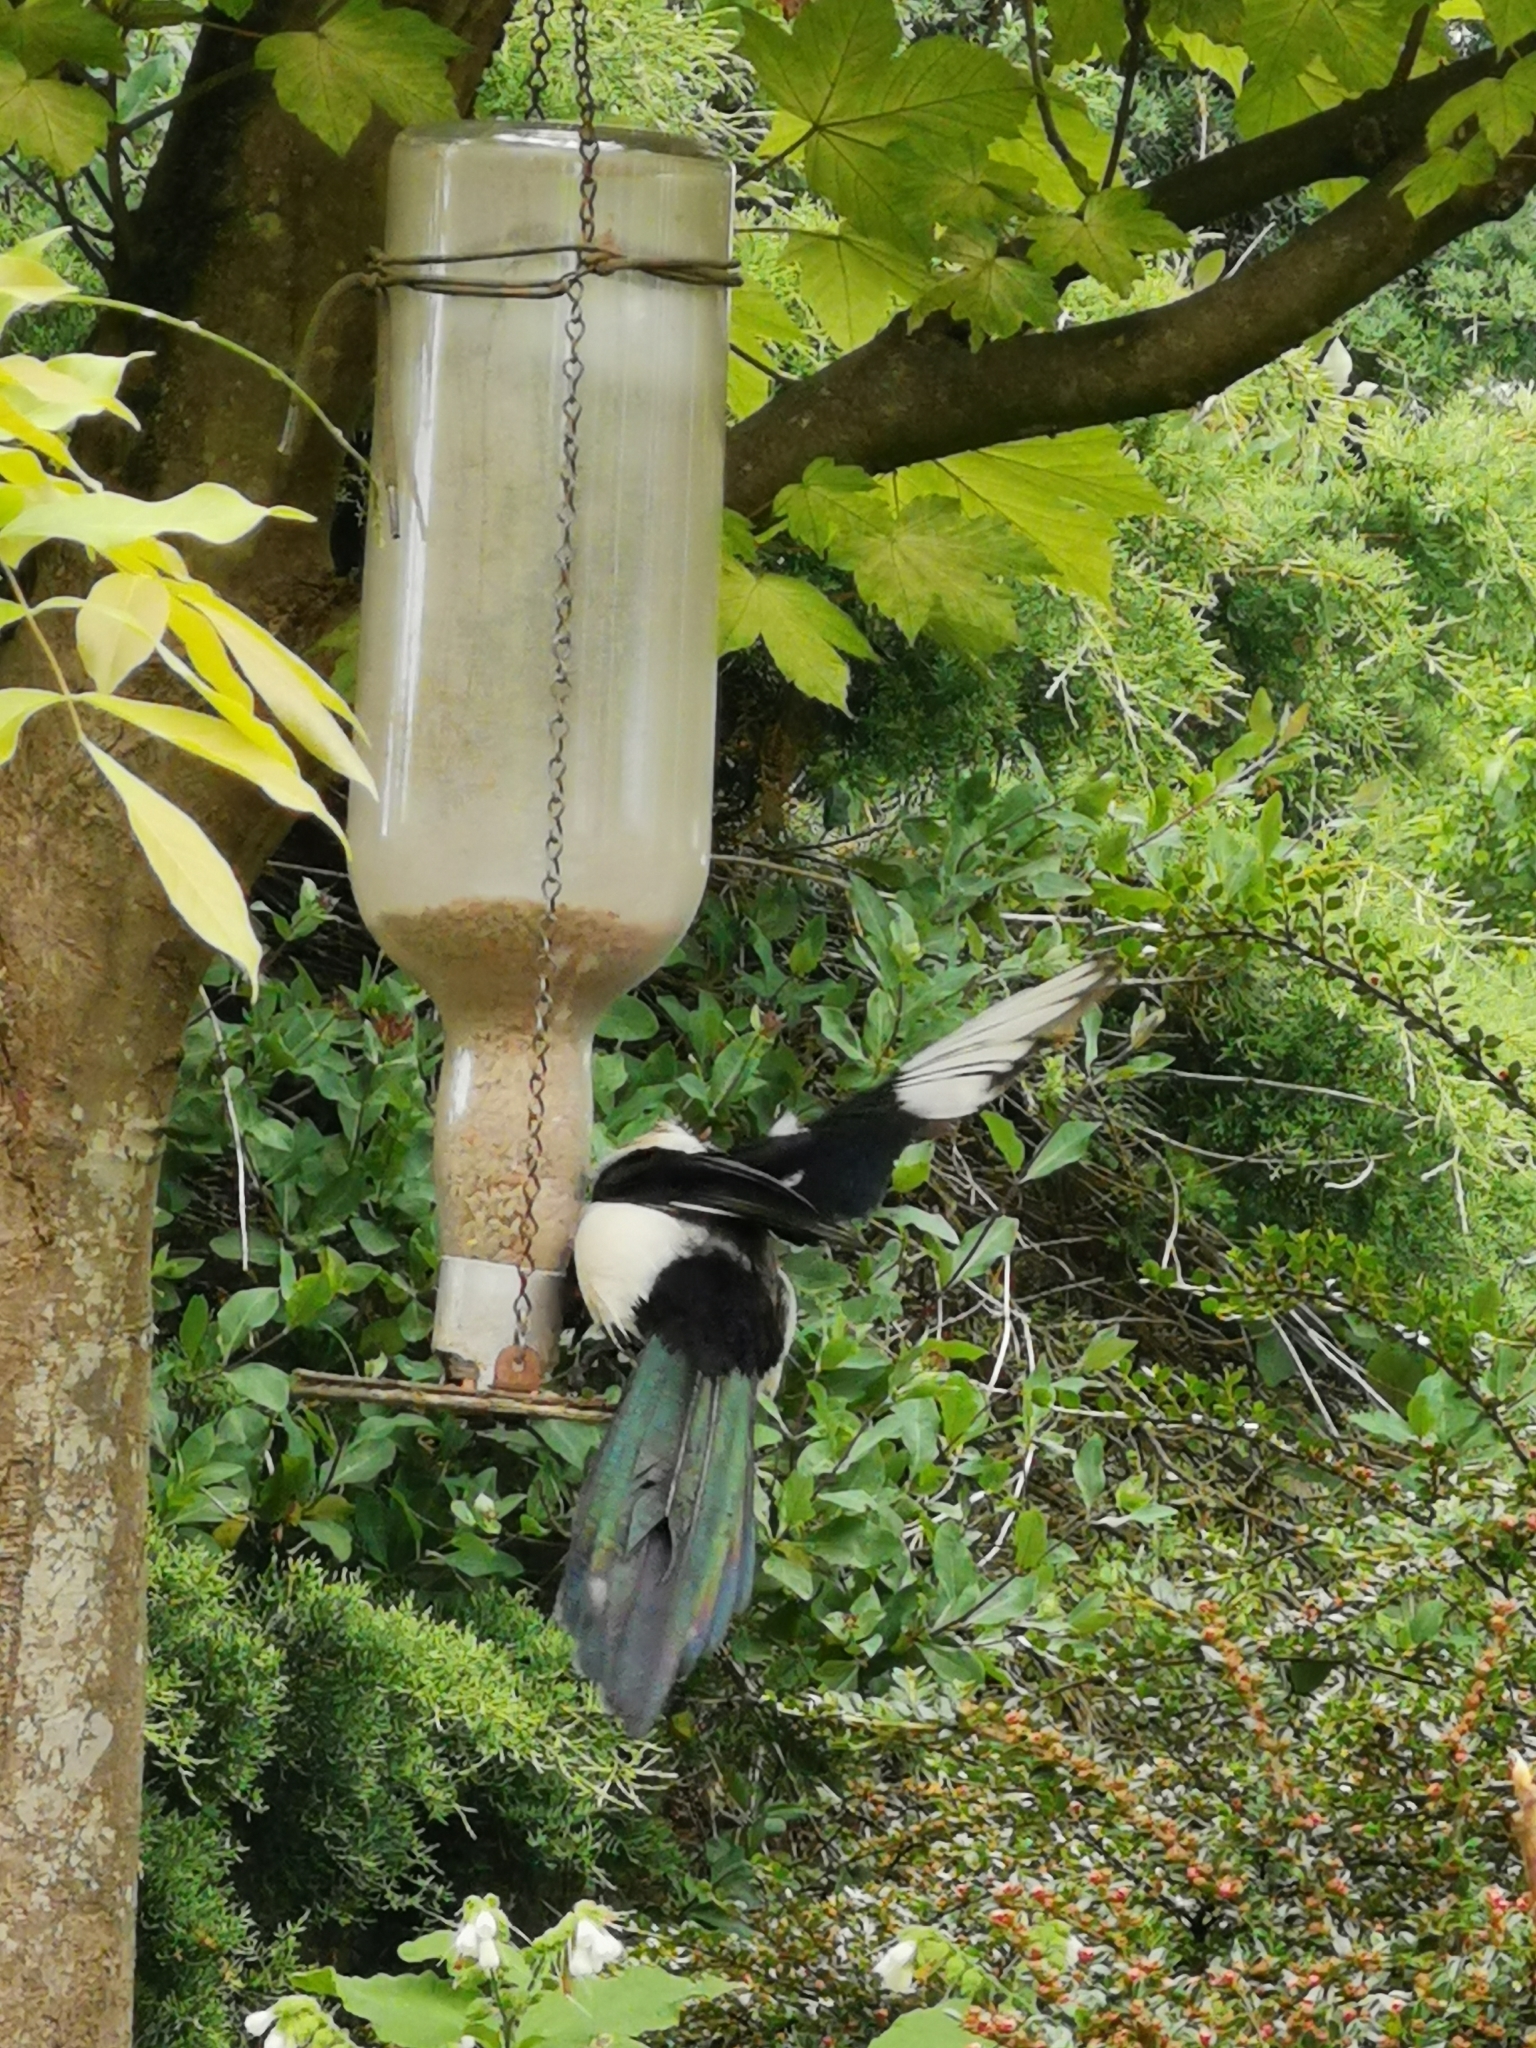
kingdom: Animalia
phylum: Chordata
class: Aves
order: Passeriformes
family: Corvidae
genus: Pica
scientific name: Pica pica
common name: Eurasian magpie
